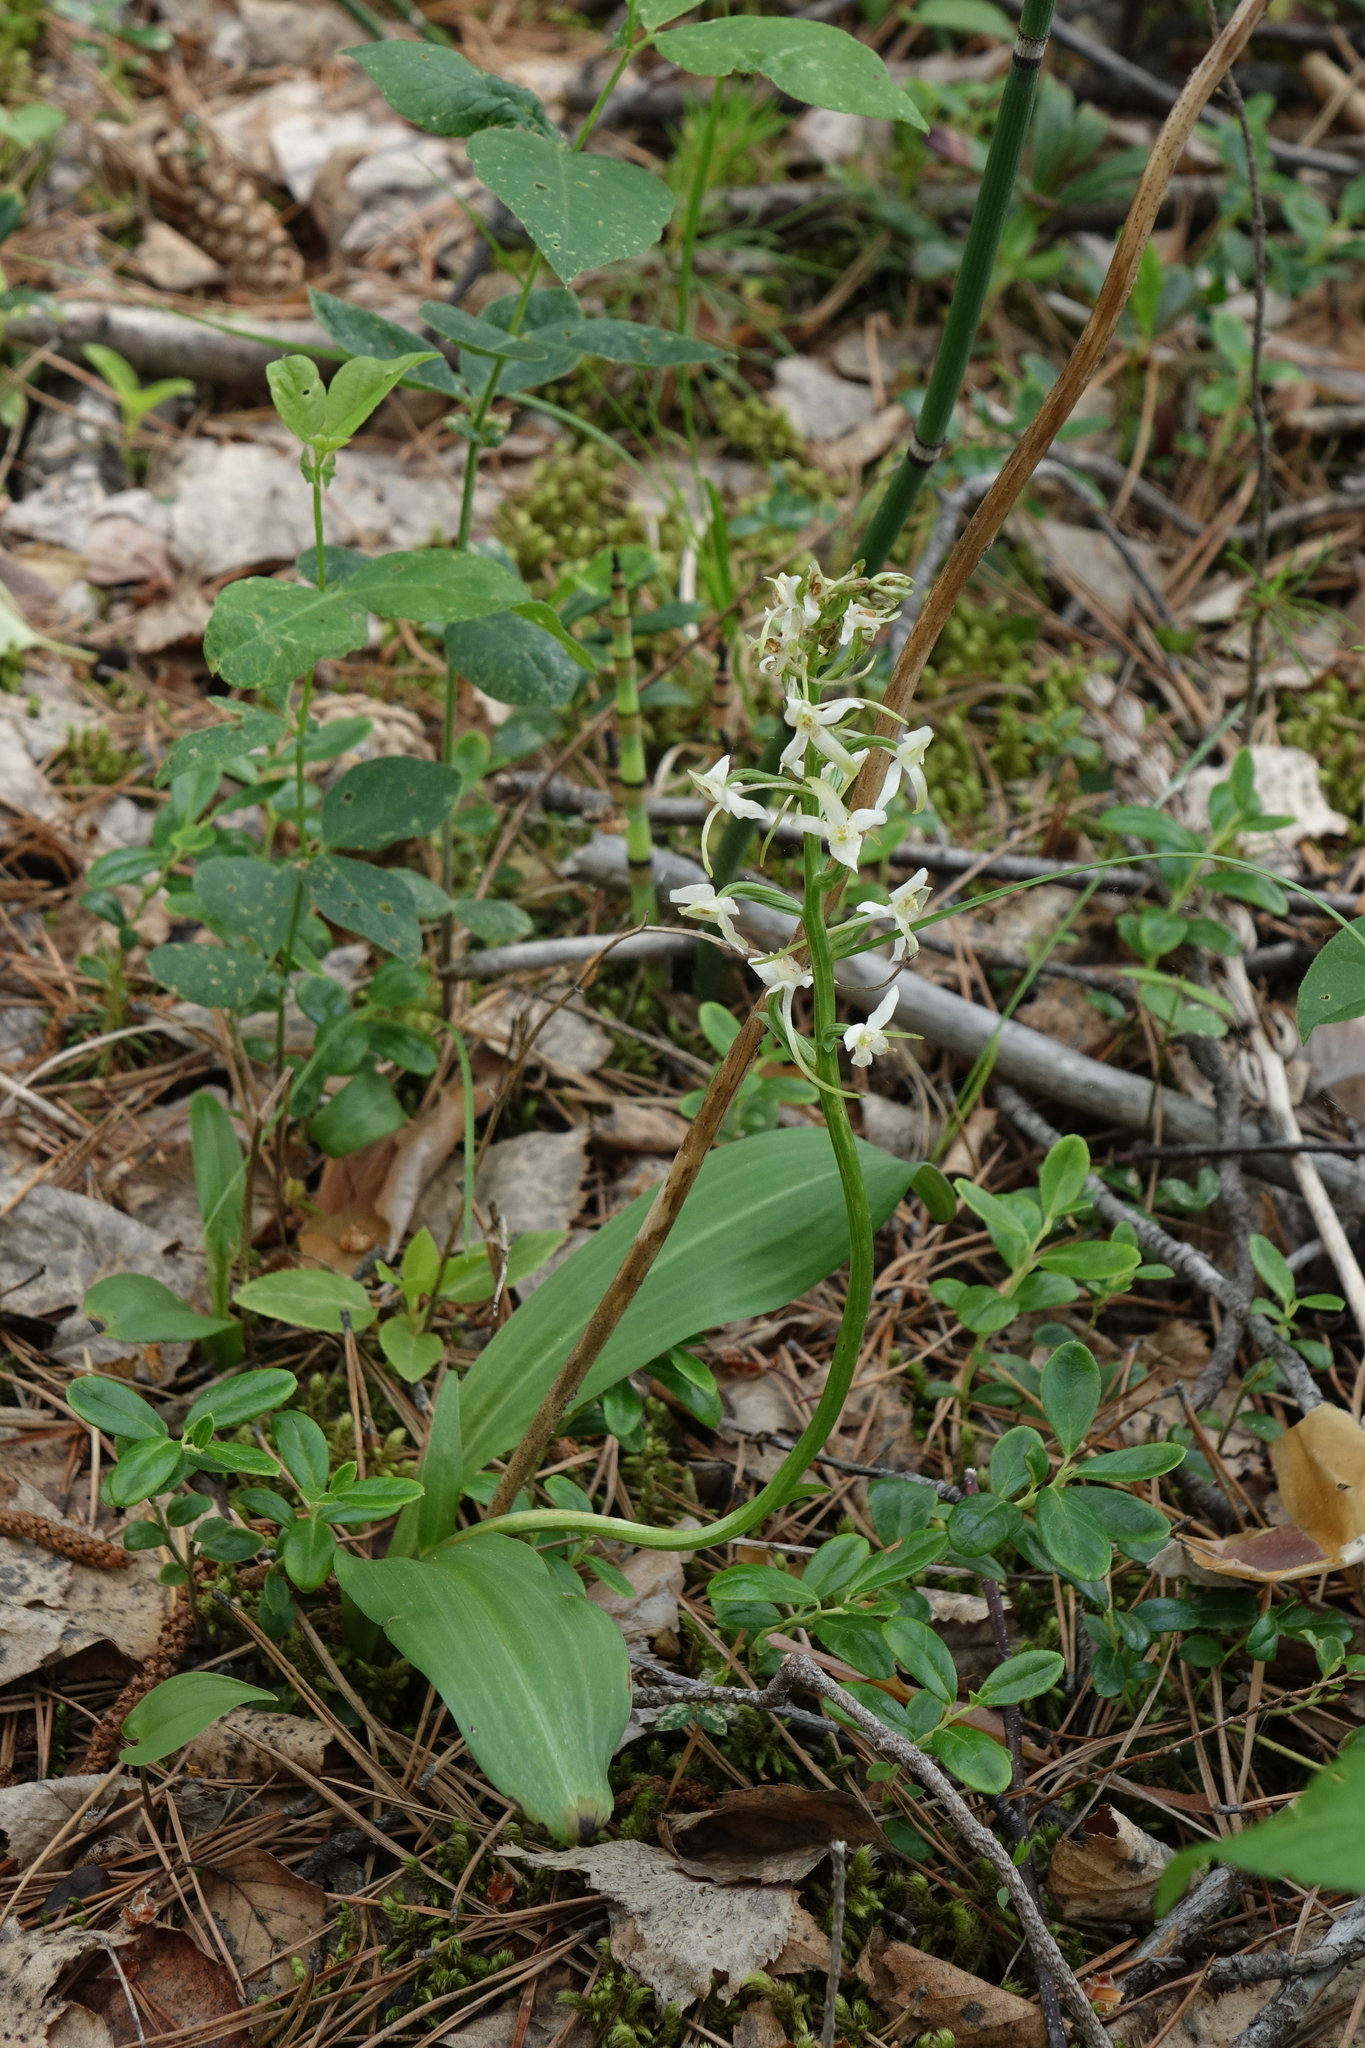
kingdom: Plantae
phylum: Tracheophyta
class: Liliopsida
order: Asparagales
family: Orchidaceae
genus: Platanthera
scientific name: Platanthera bifolia
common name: Lesser butterfly-orchid
